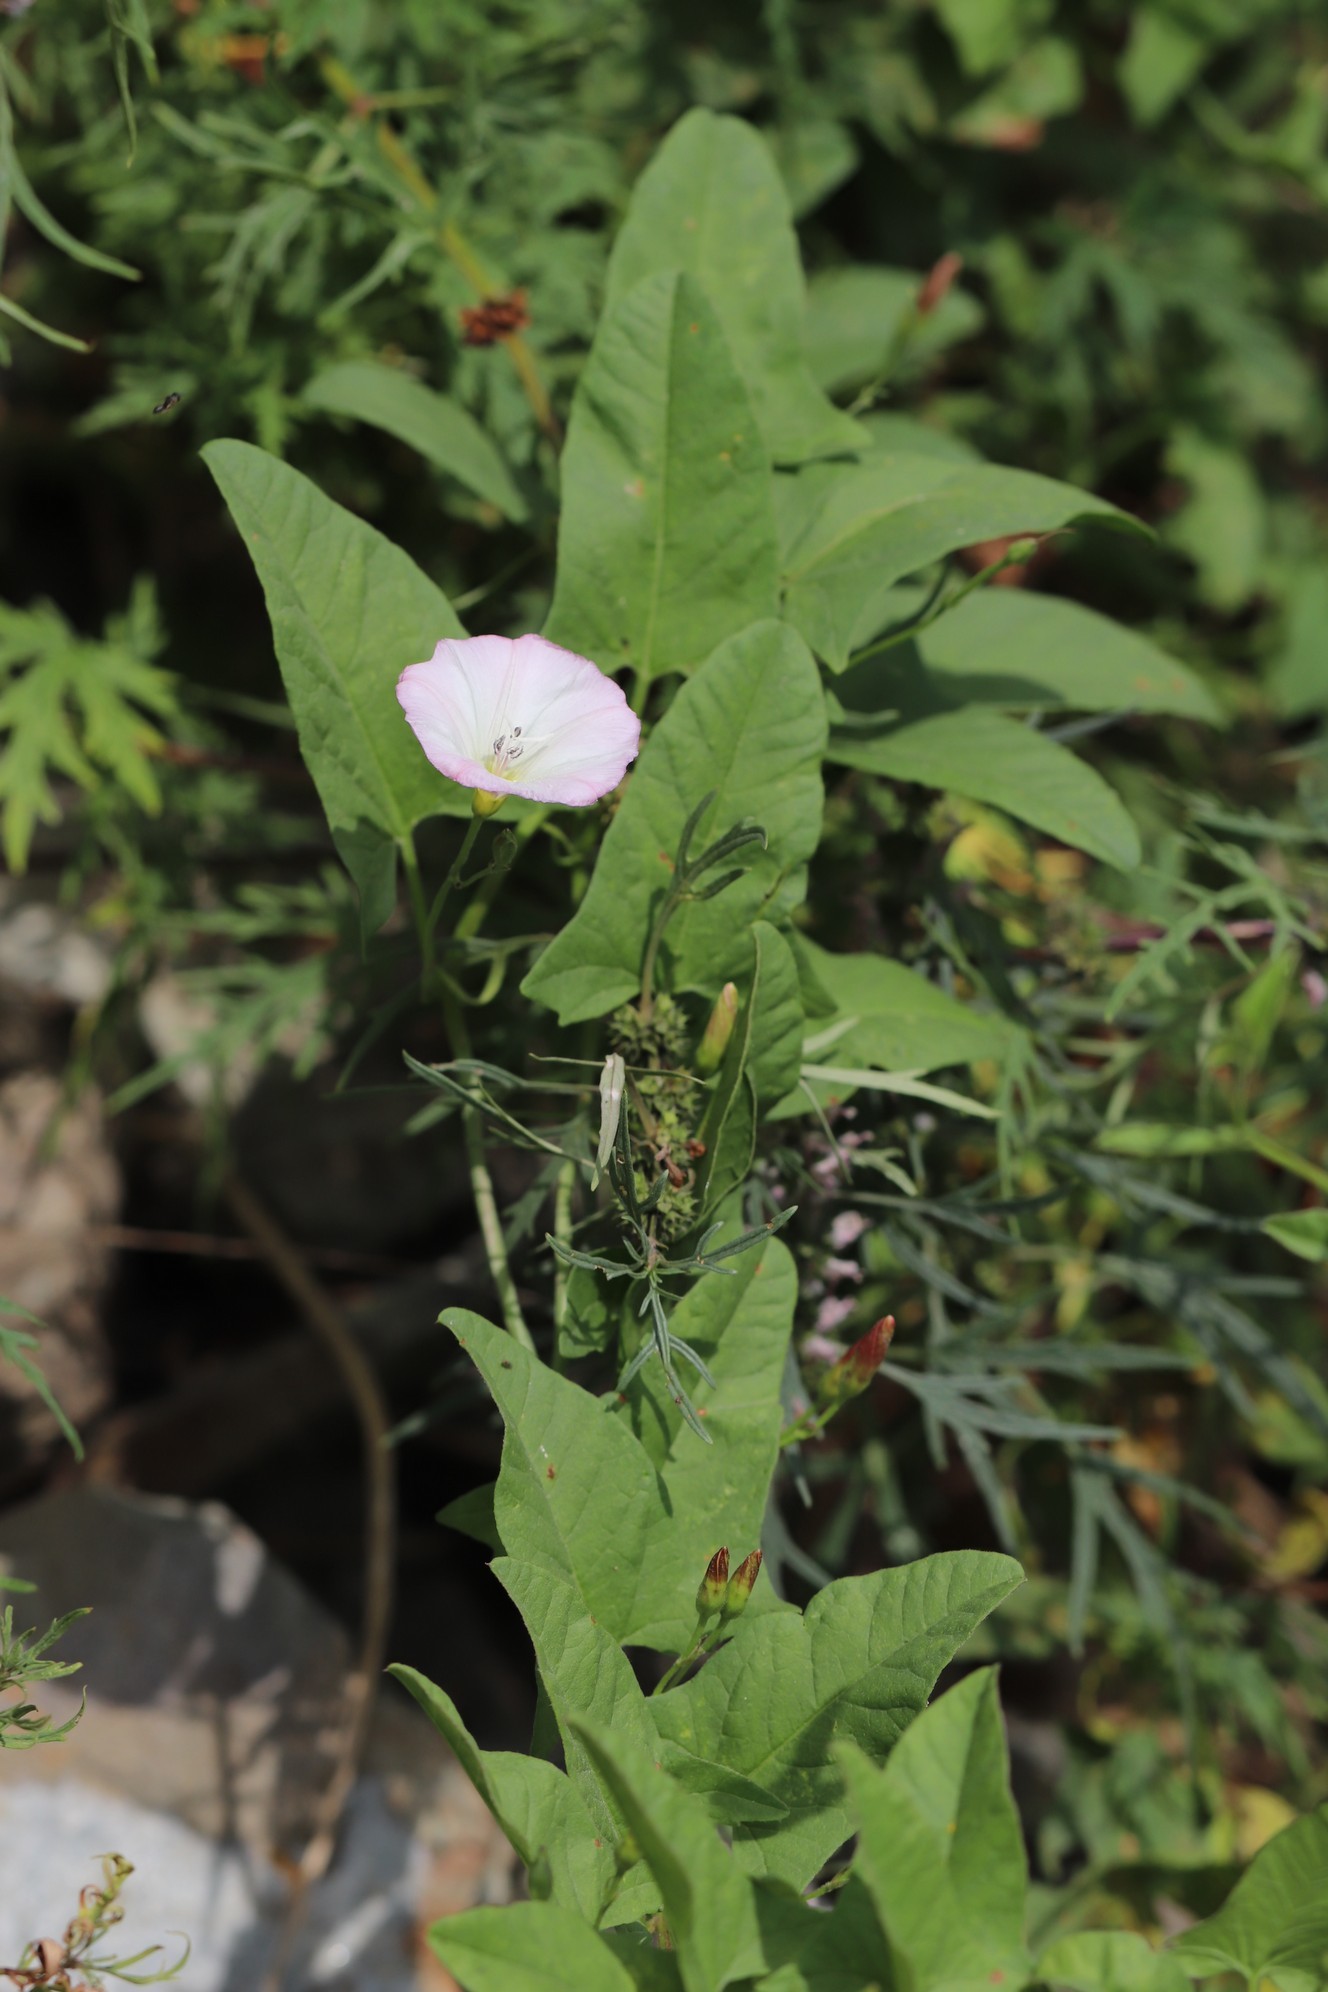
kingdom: Plantae
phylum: Tracheophyta
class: Magnoliopsida
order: Solanales
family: Convolvulaceae
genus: Convolvulus
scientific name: Convolvulus arvensis
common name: Field bindweed
